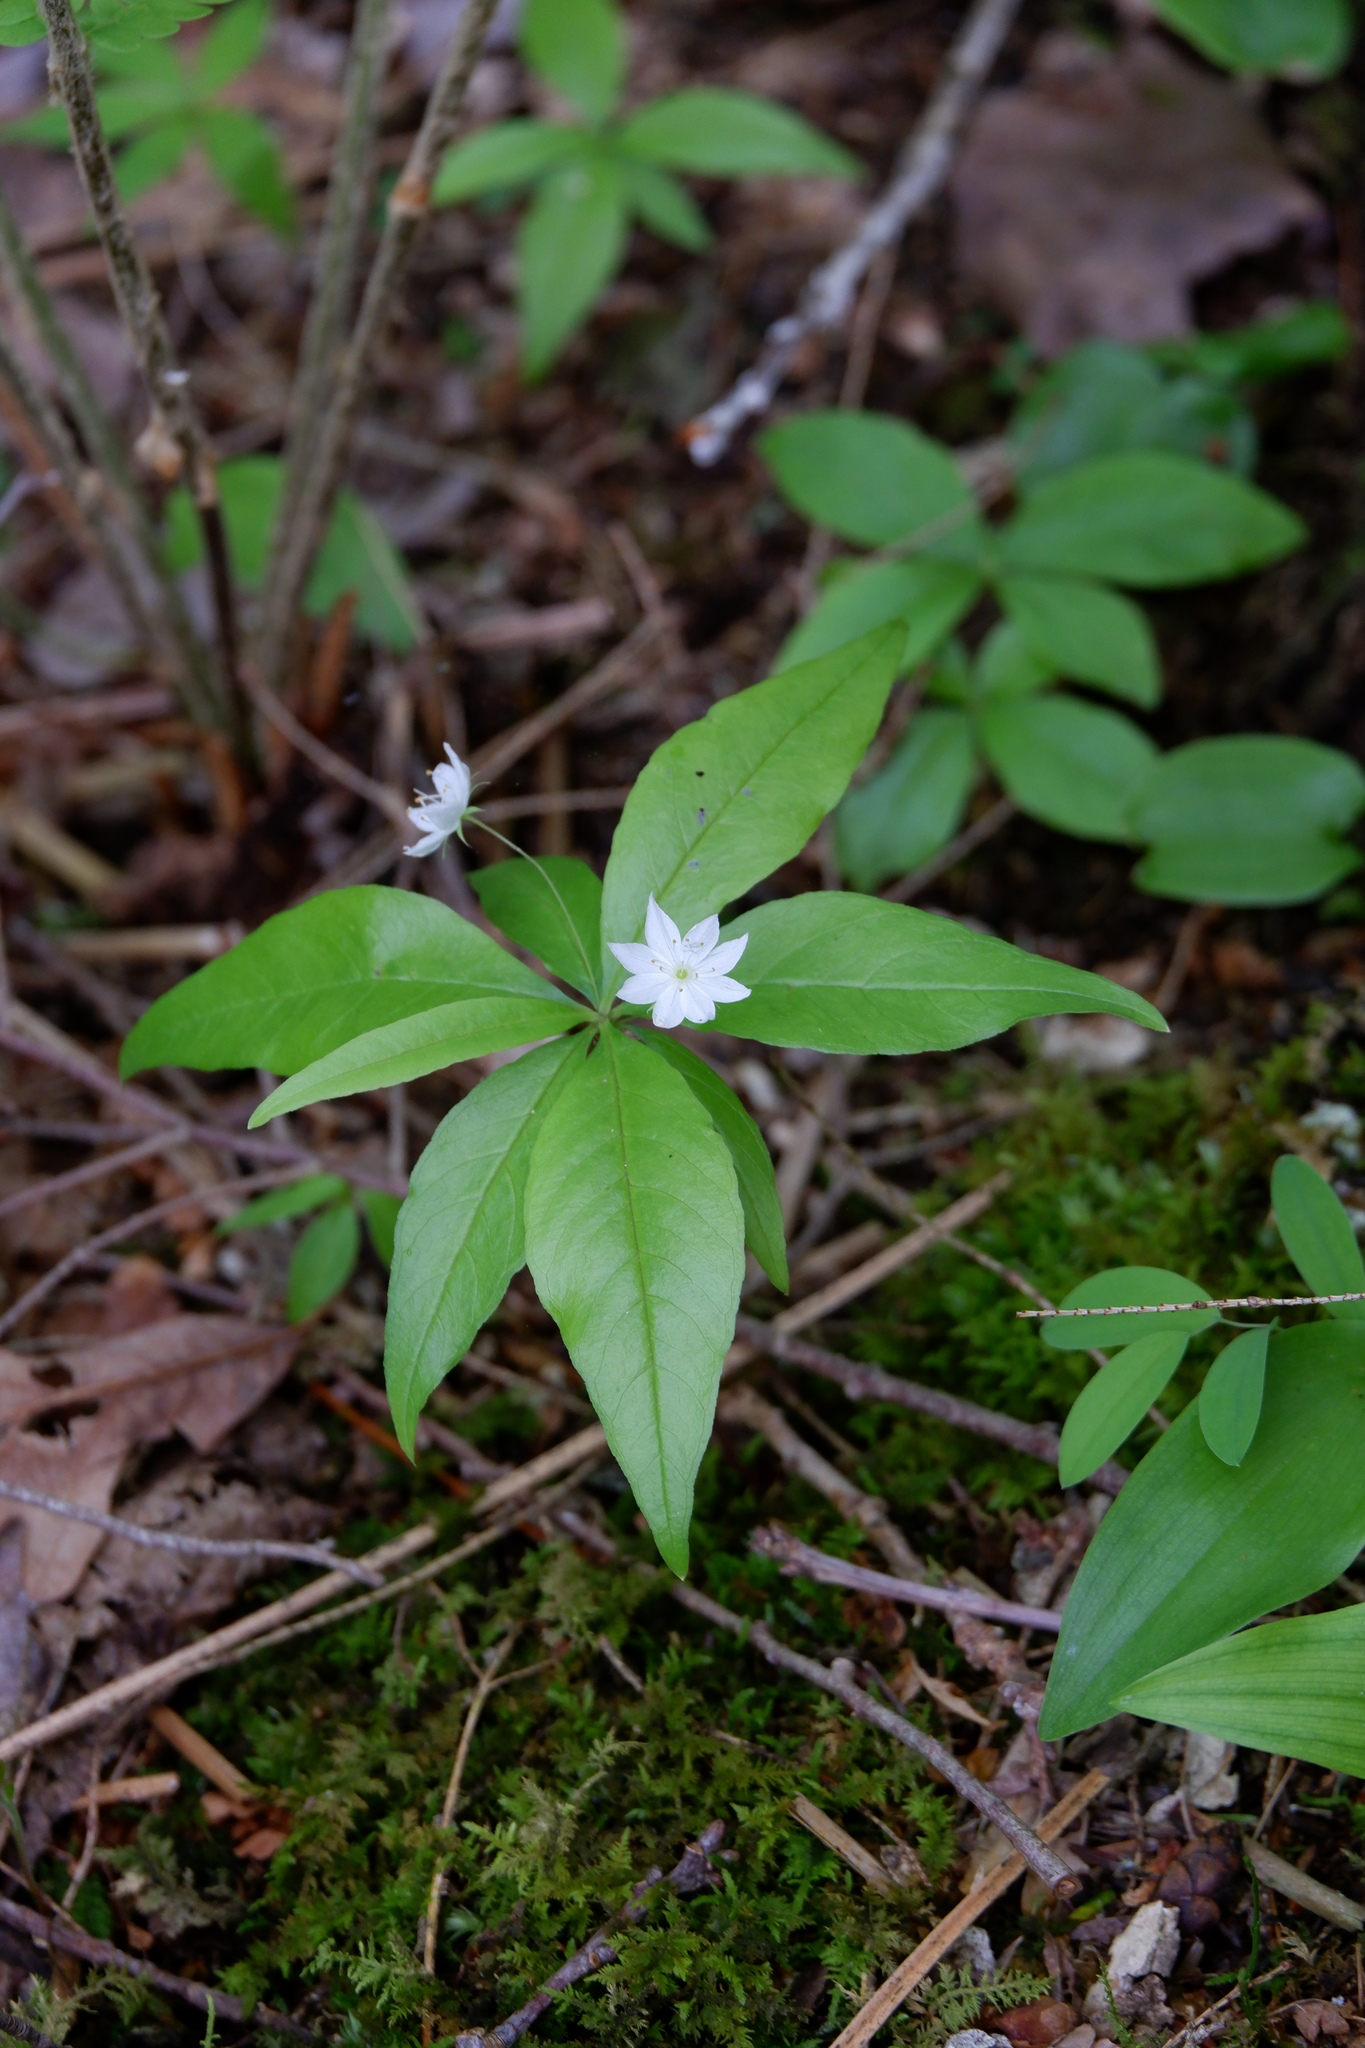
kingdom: Plantae
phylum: Tracheophyta
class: Magnoliopsida
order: Ericales
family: Primulaceae
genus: Lysimachia
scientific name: Lysimachia borealis
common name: American starflower
